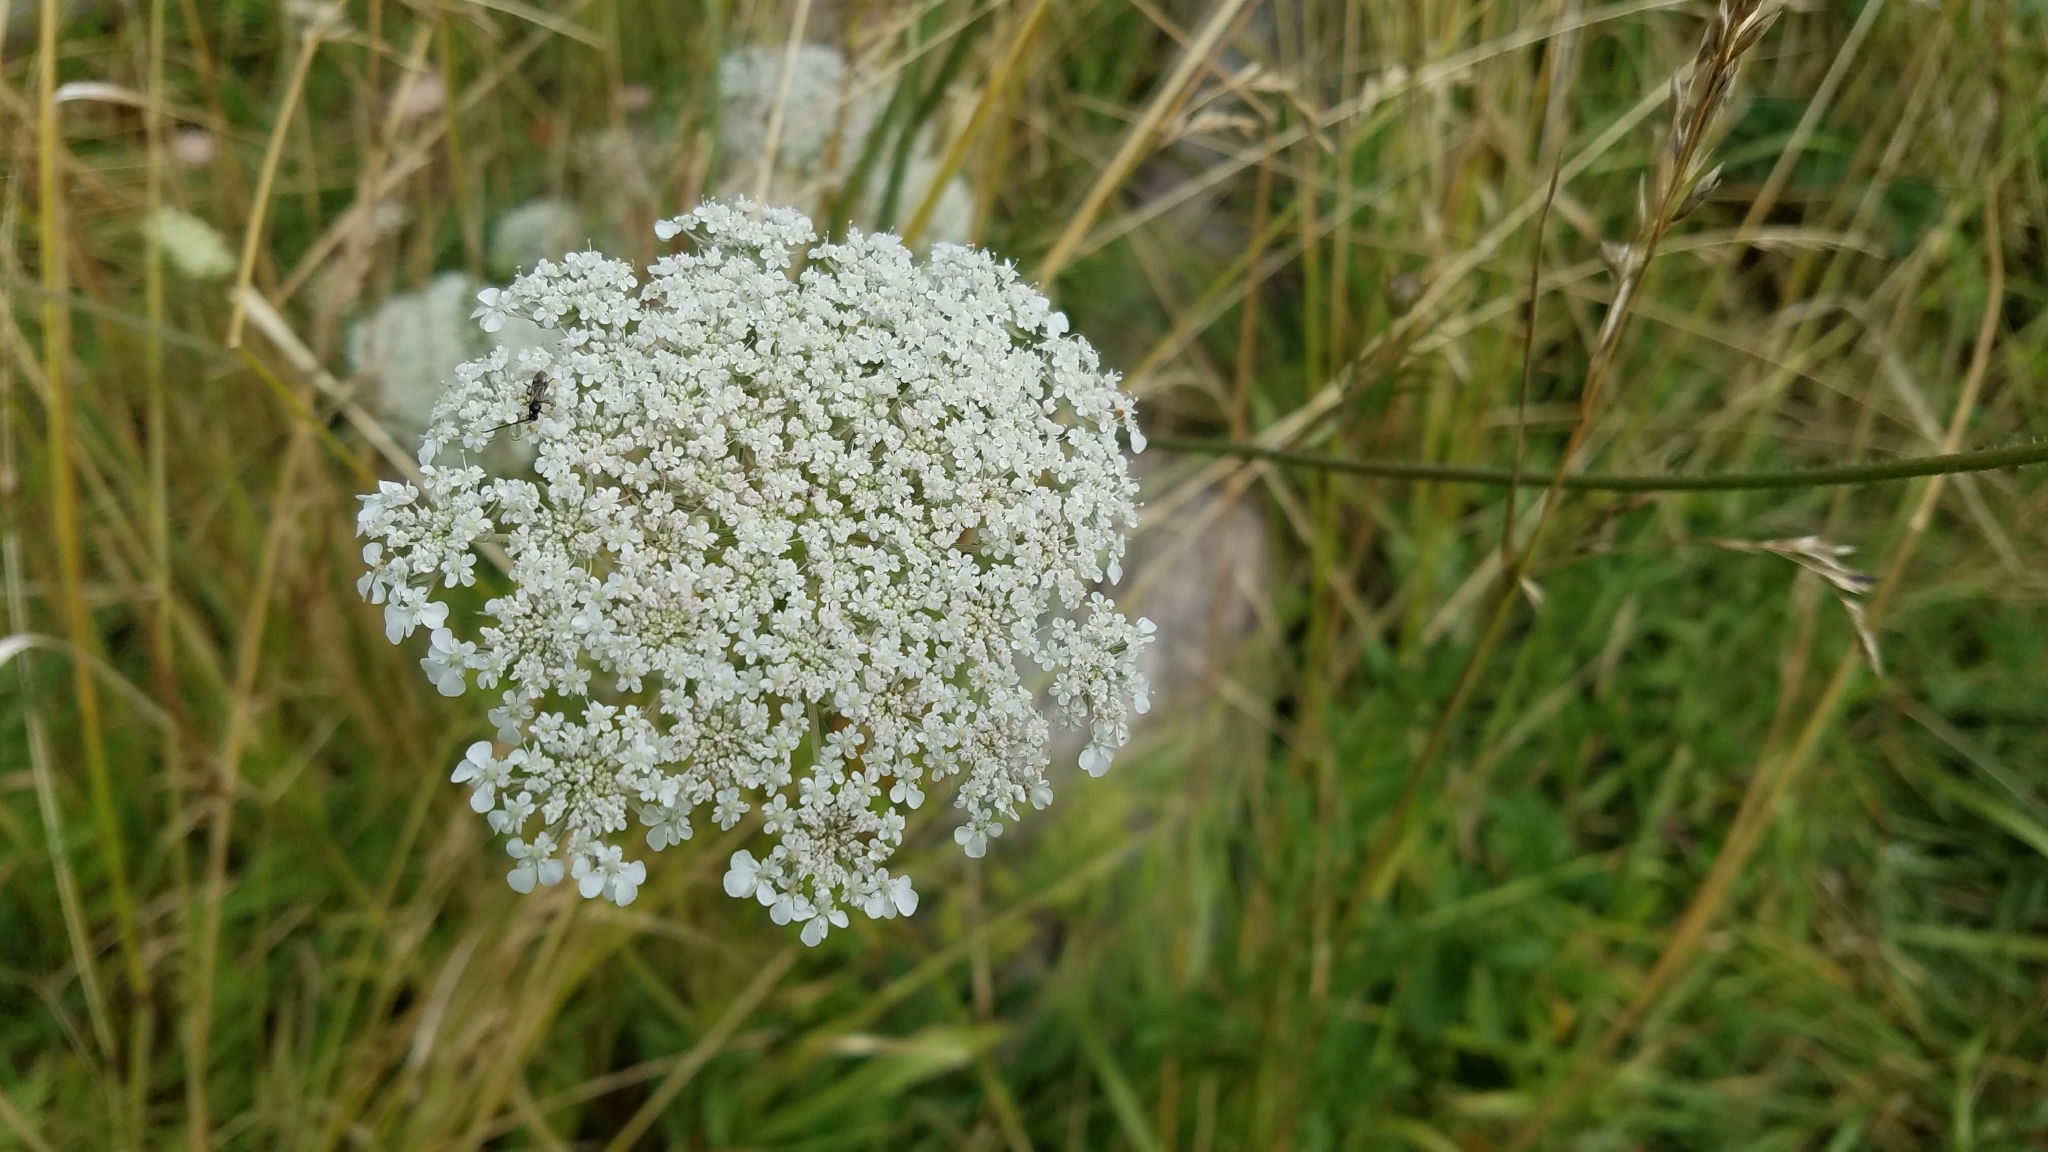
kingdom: Plantae
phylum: Tracheophyta
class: Magnoliopsida
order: Apiales
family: Apiaceae
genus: Daucus
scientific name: Daucus carota
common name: Wild carrot
